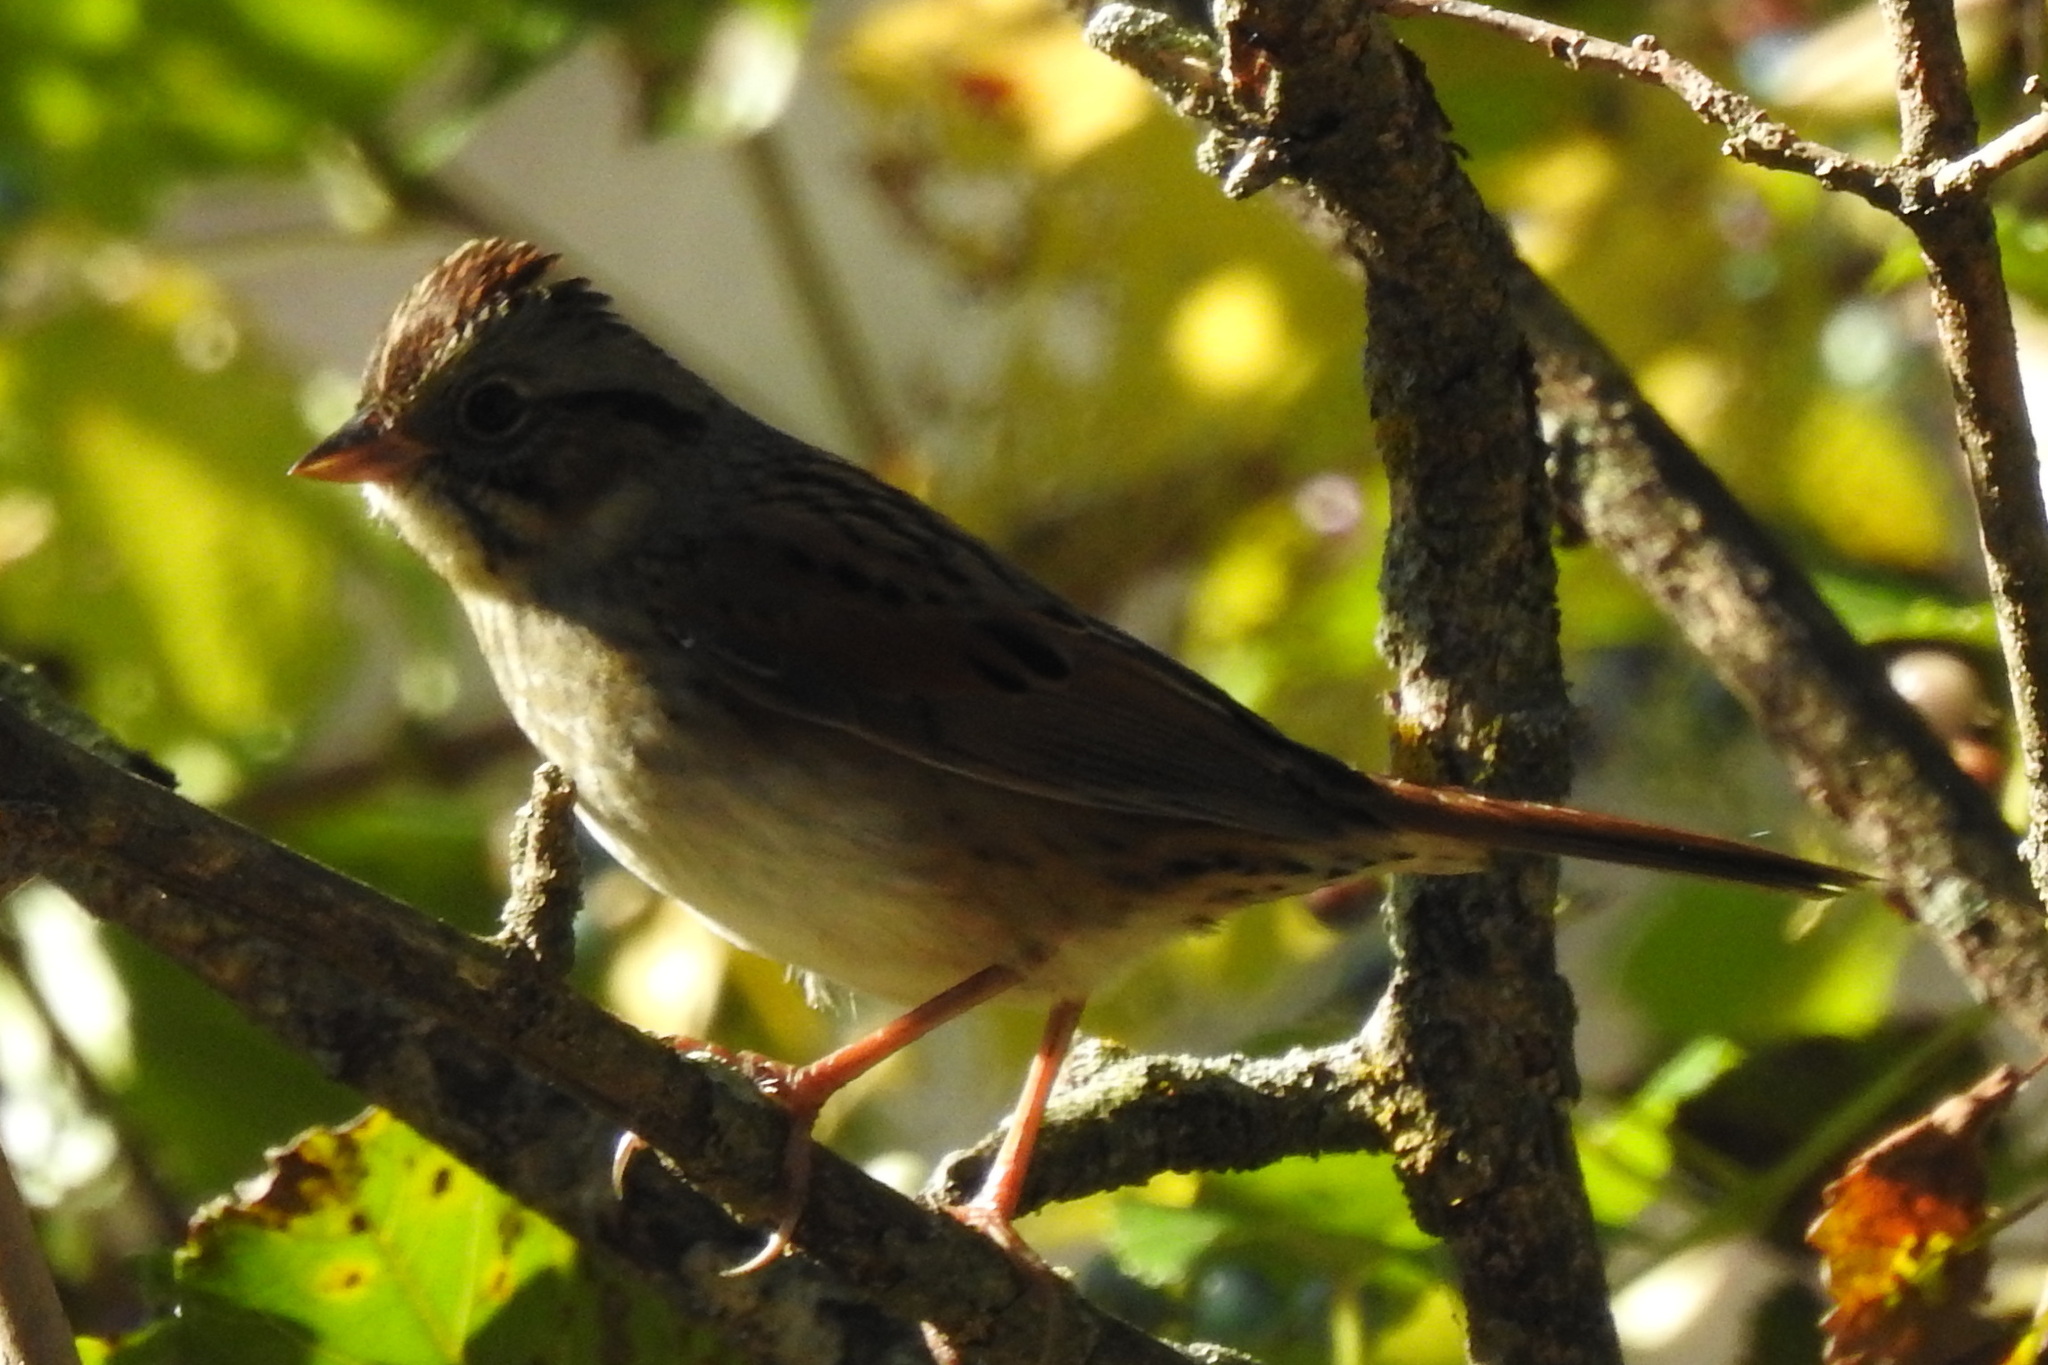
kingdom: Animalia
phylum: Chordata
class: Aves
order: Passeriformes
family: Passerellidae
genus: Melospiza
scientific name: Melospiza georgiana
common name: Swamp sparrow
